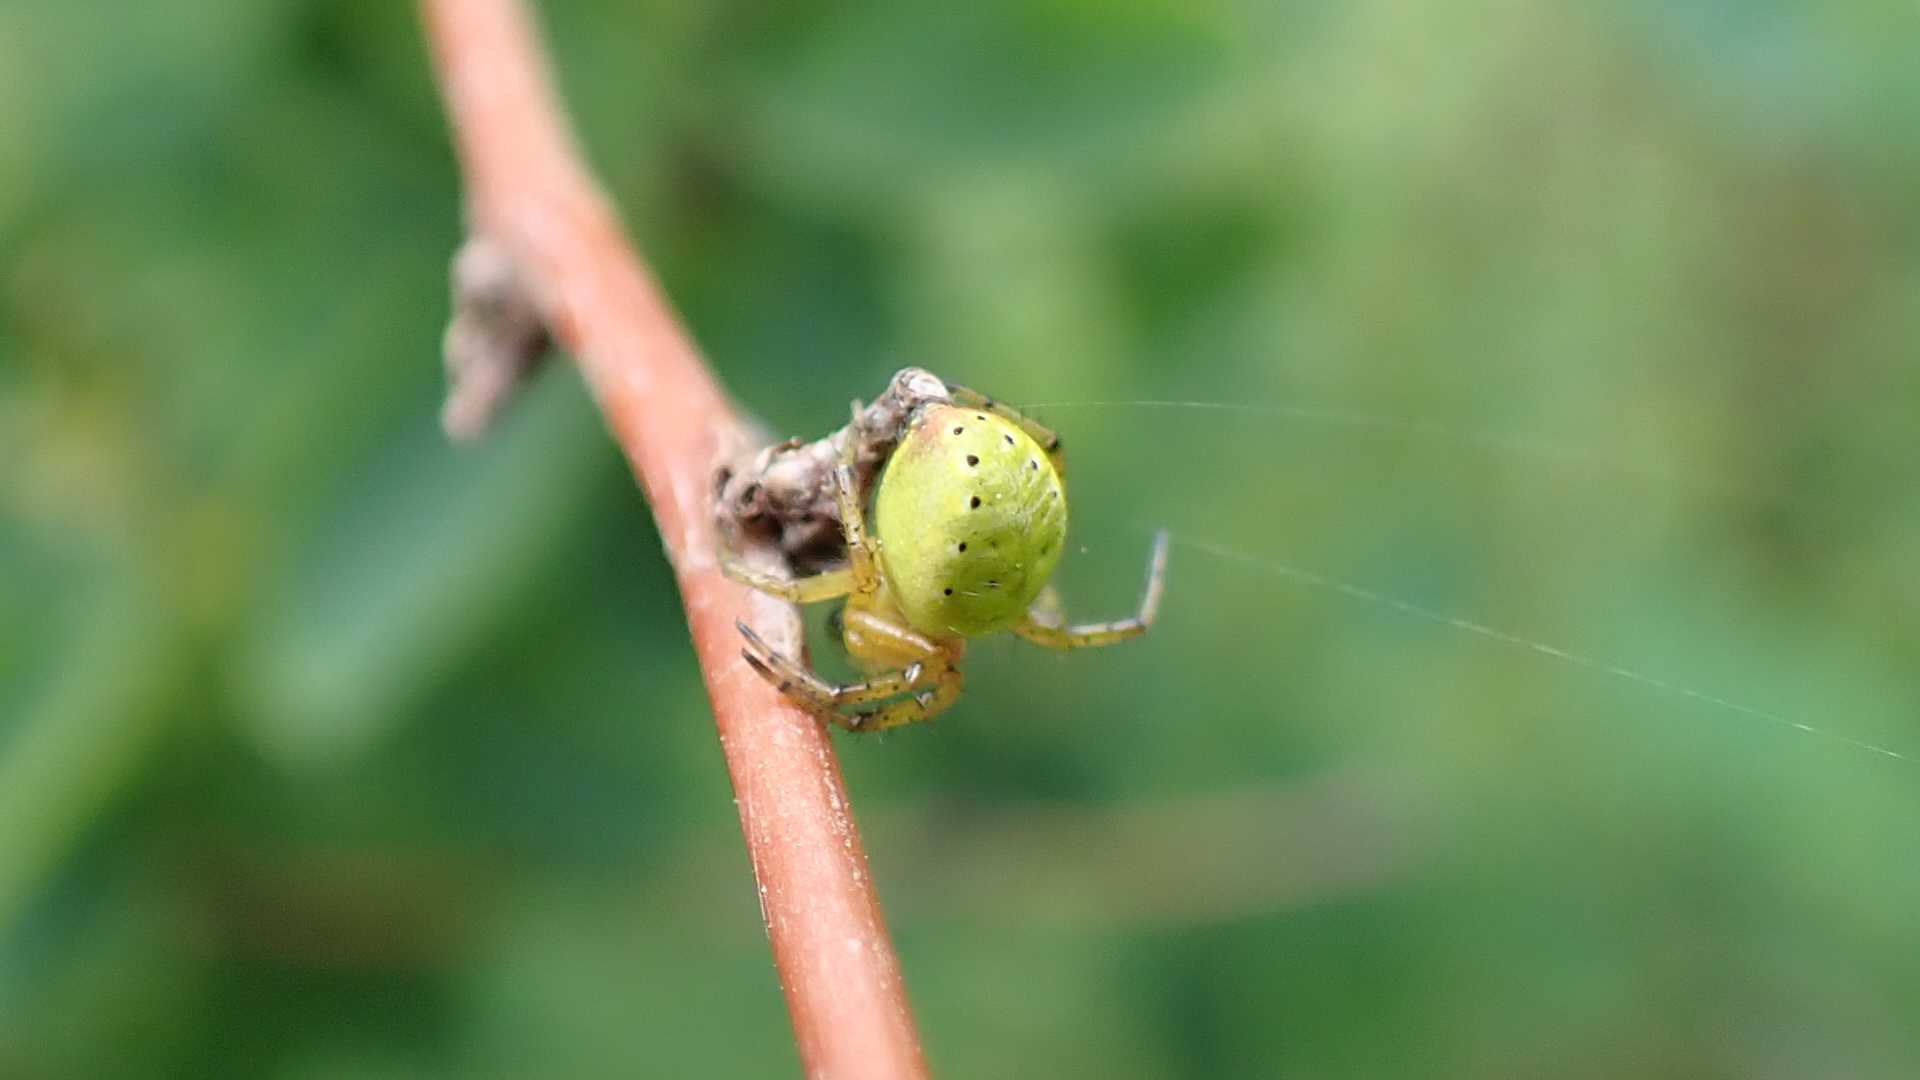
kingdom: Animalia
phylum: Arthropoda
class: Arachnida
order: Araneae
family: Araneidae
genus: Araniella
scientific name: Araniella
